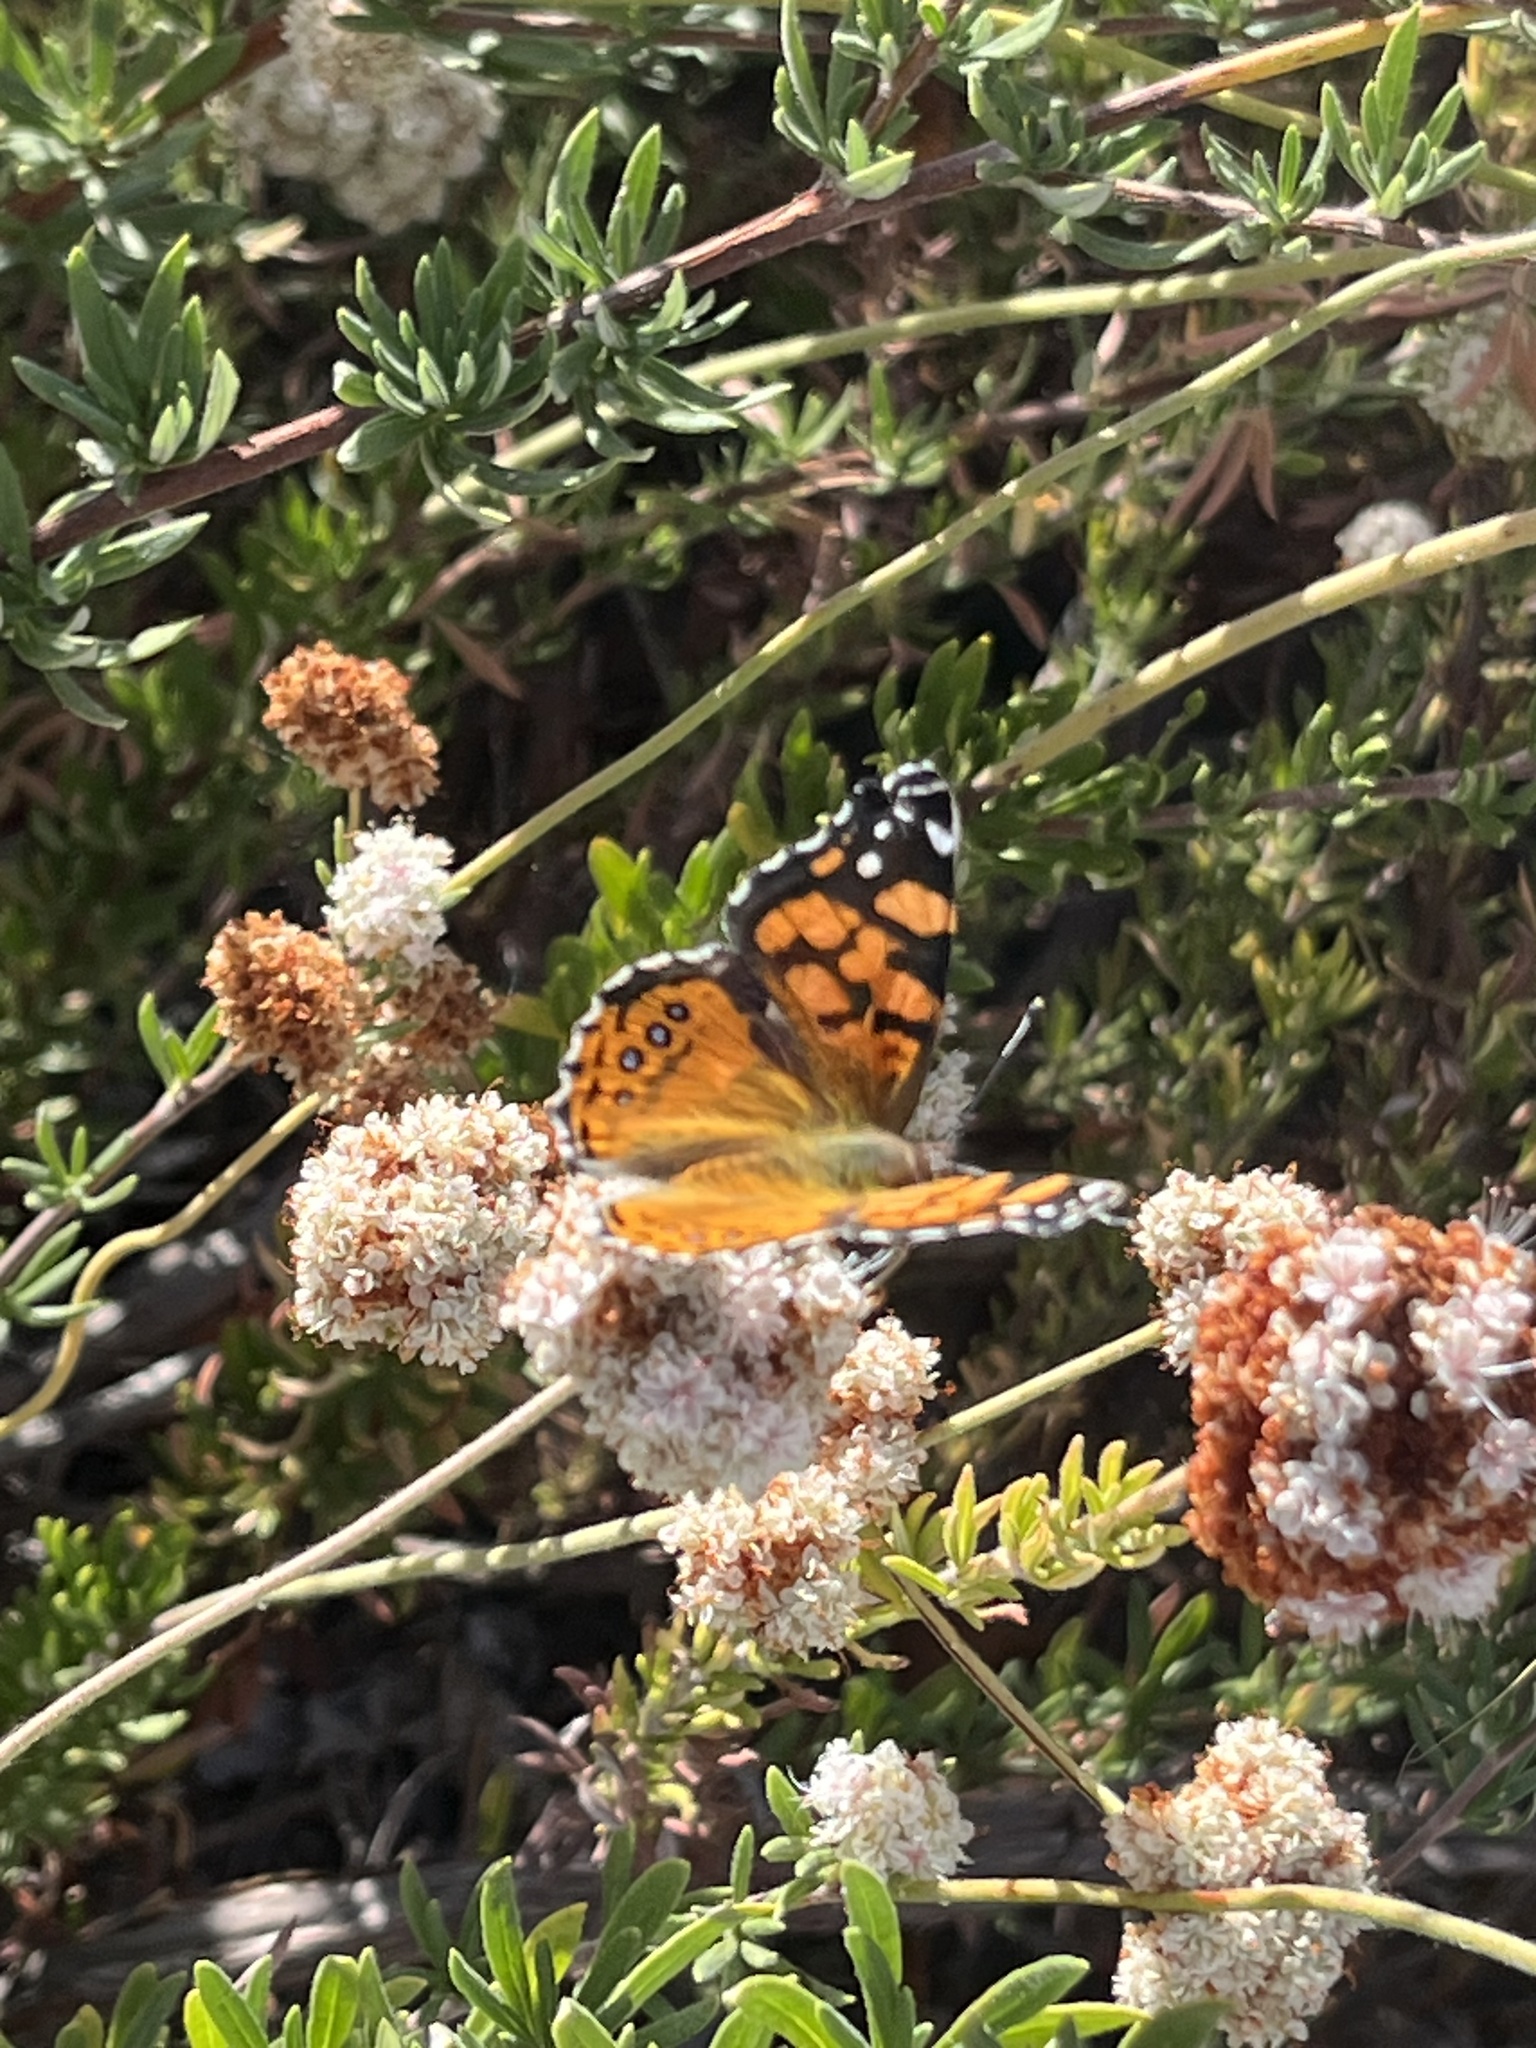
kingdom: Animalia
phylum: Arthropoda
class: Insecta
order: Lepidoptera
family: Nymphalidae
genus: Vanessa
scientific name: Vanessa annabella
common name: West coast lady
